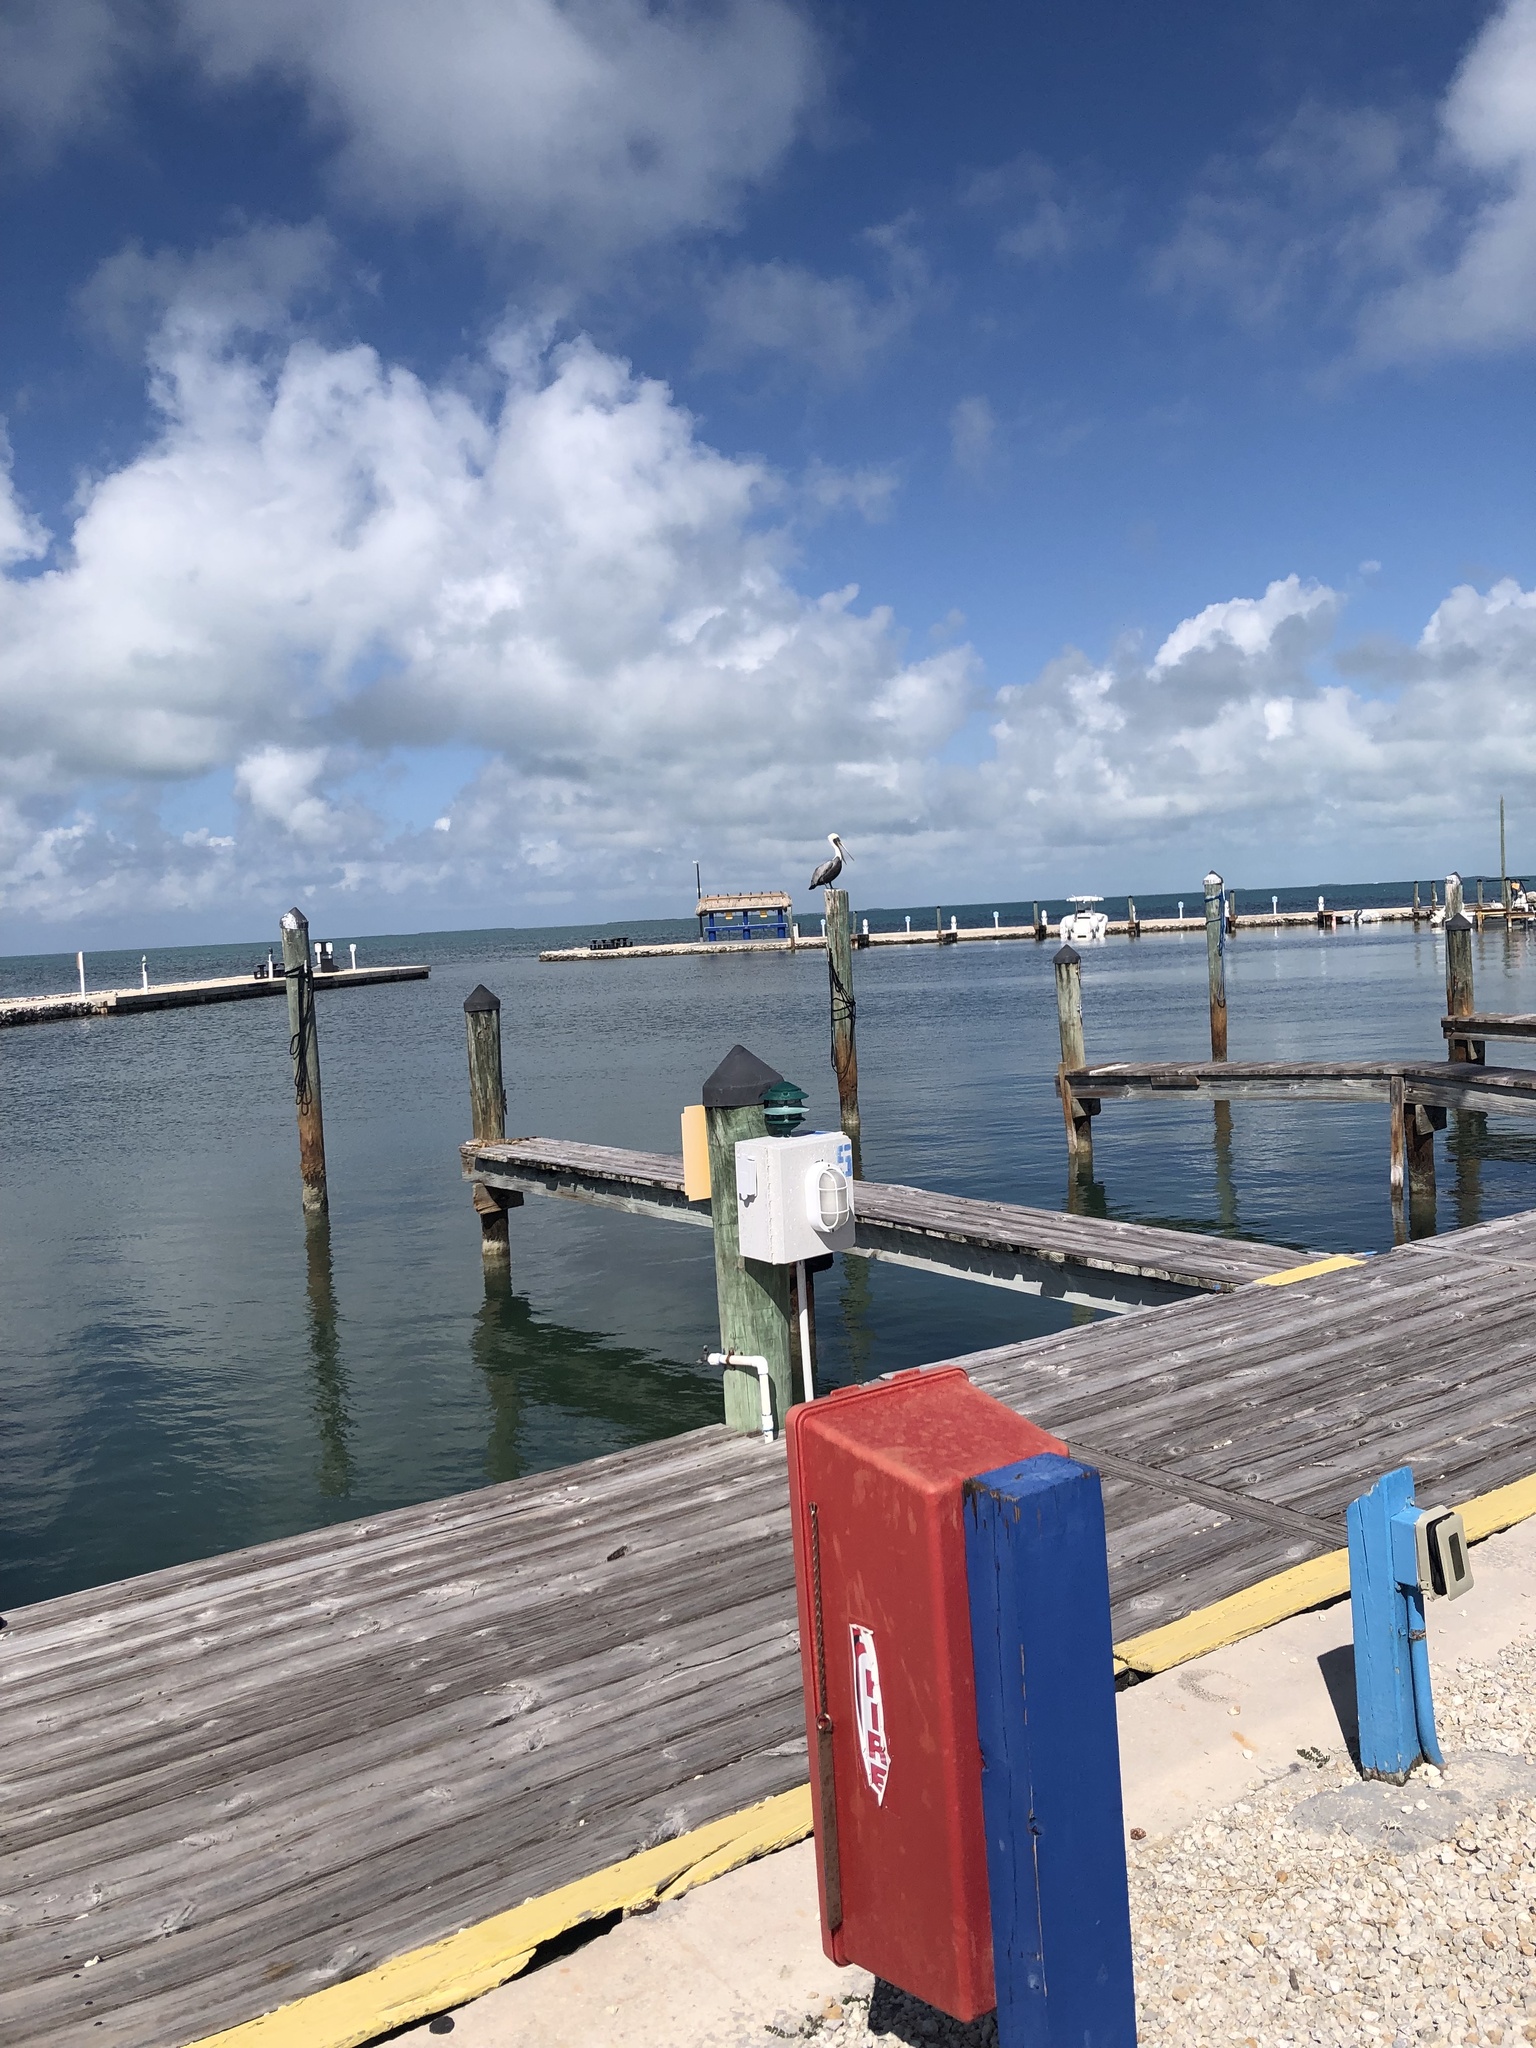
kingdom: Animalia
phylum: Chordata
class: Aves
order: Pelecaniformes
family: Pelecanidae
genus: Pelecanus
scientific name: Pelecanus occidentalis
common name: Brown pelican
